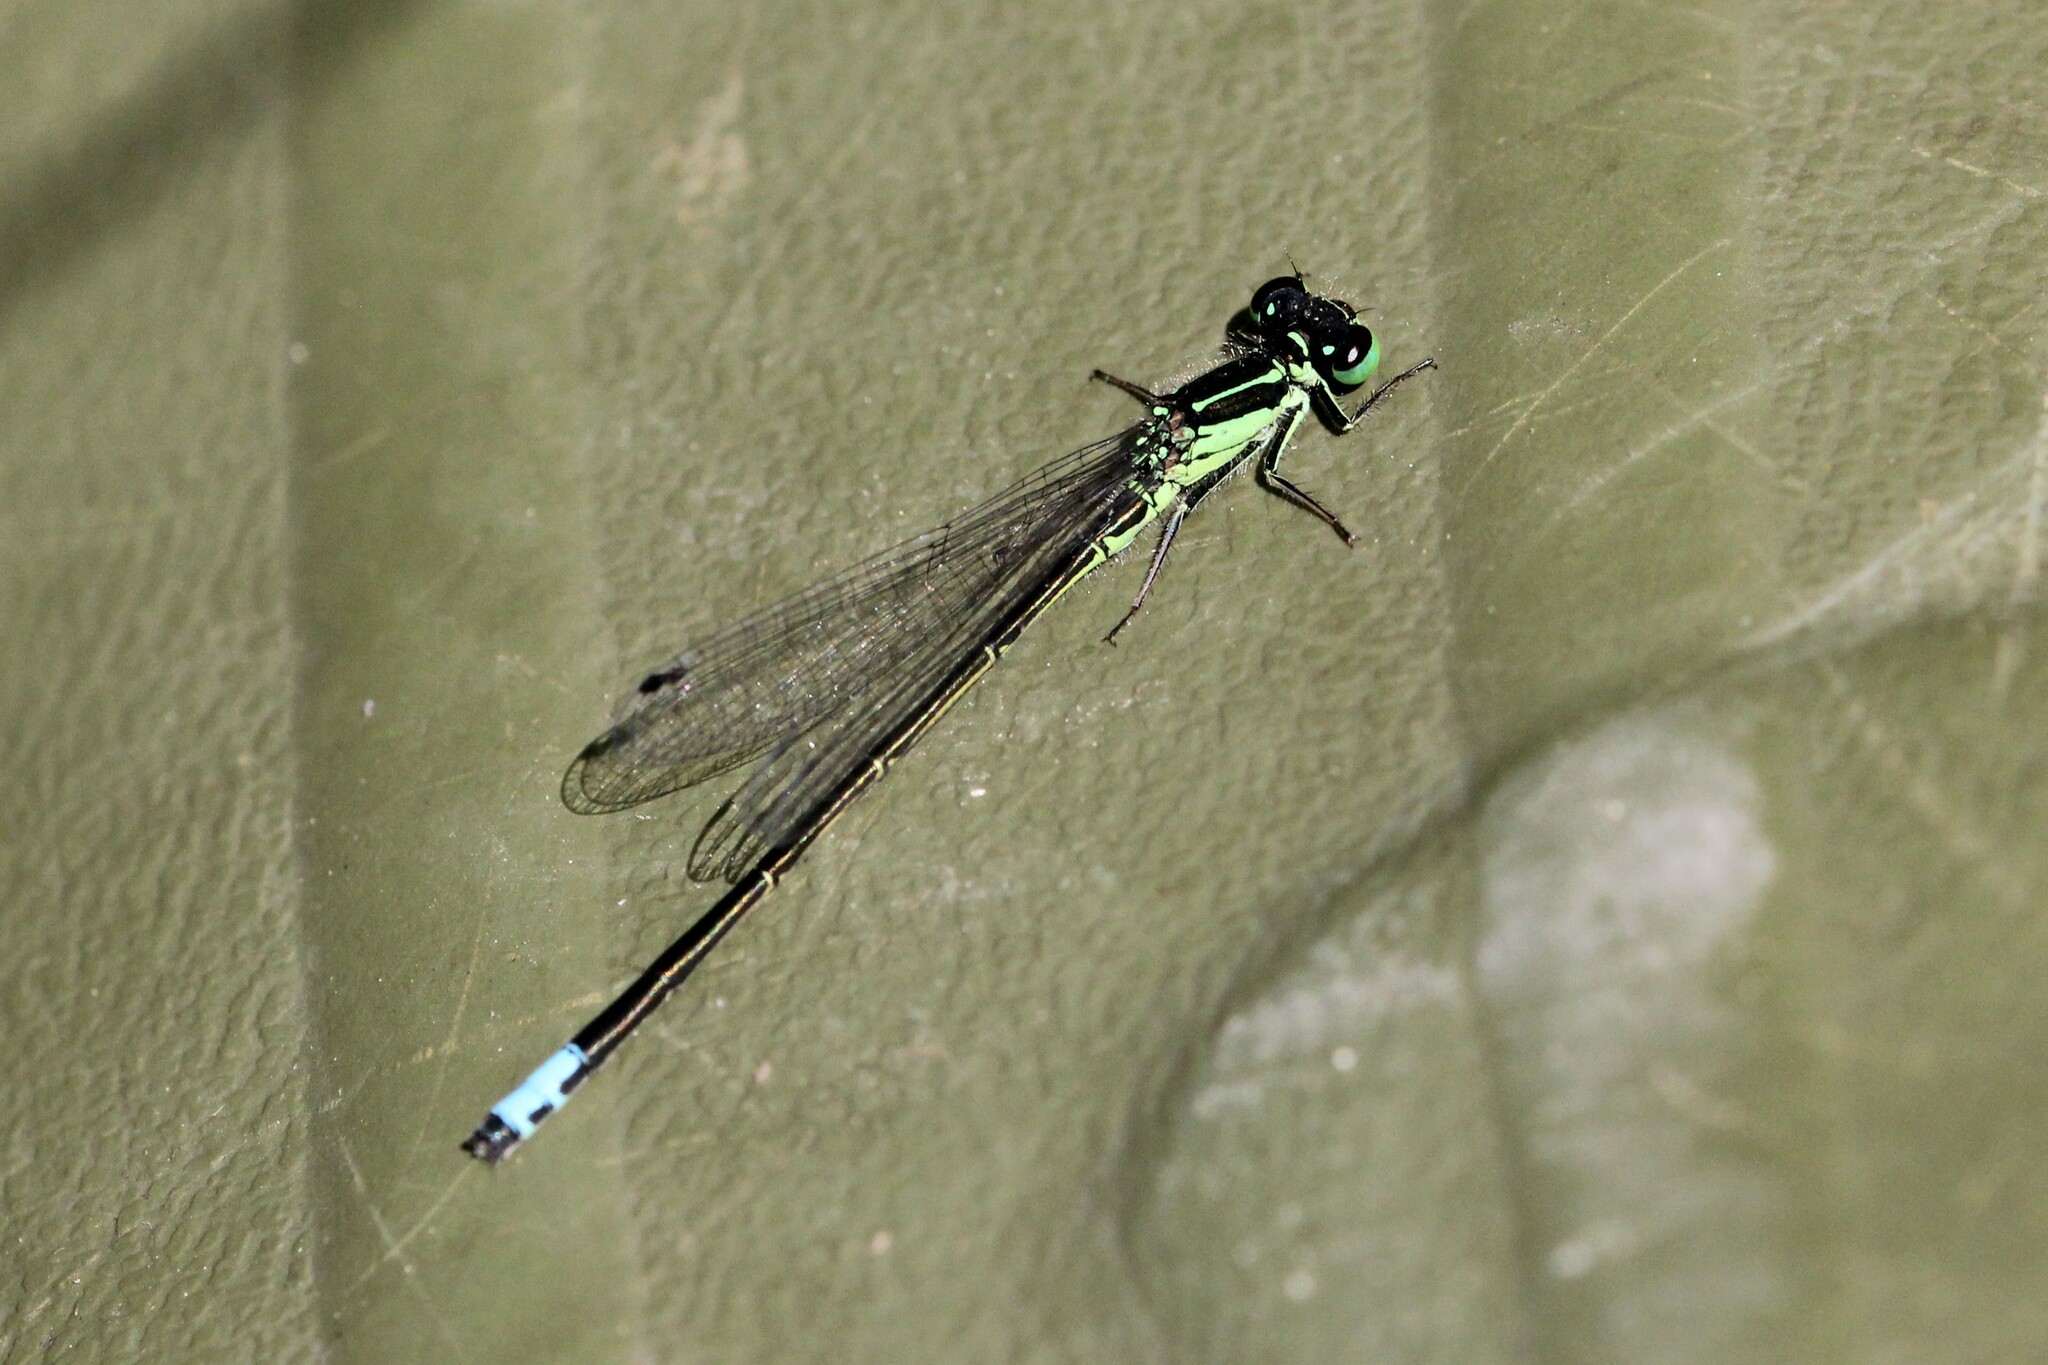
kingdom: Animalia
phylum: Arthropoda
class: Insecta
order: Odonata
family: Coenagrionidae
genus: Ischnura
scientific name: Ischnura verticalis
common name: Eastern forktail
